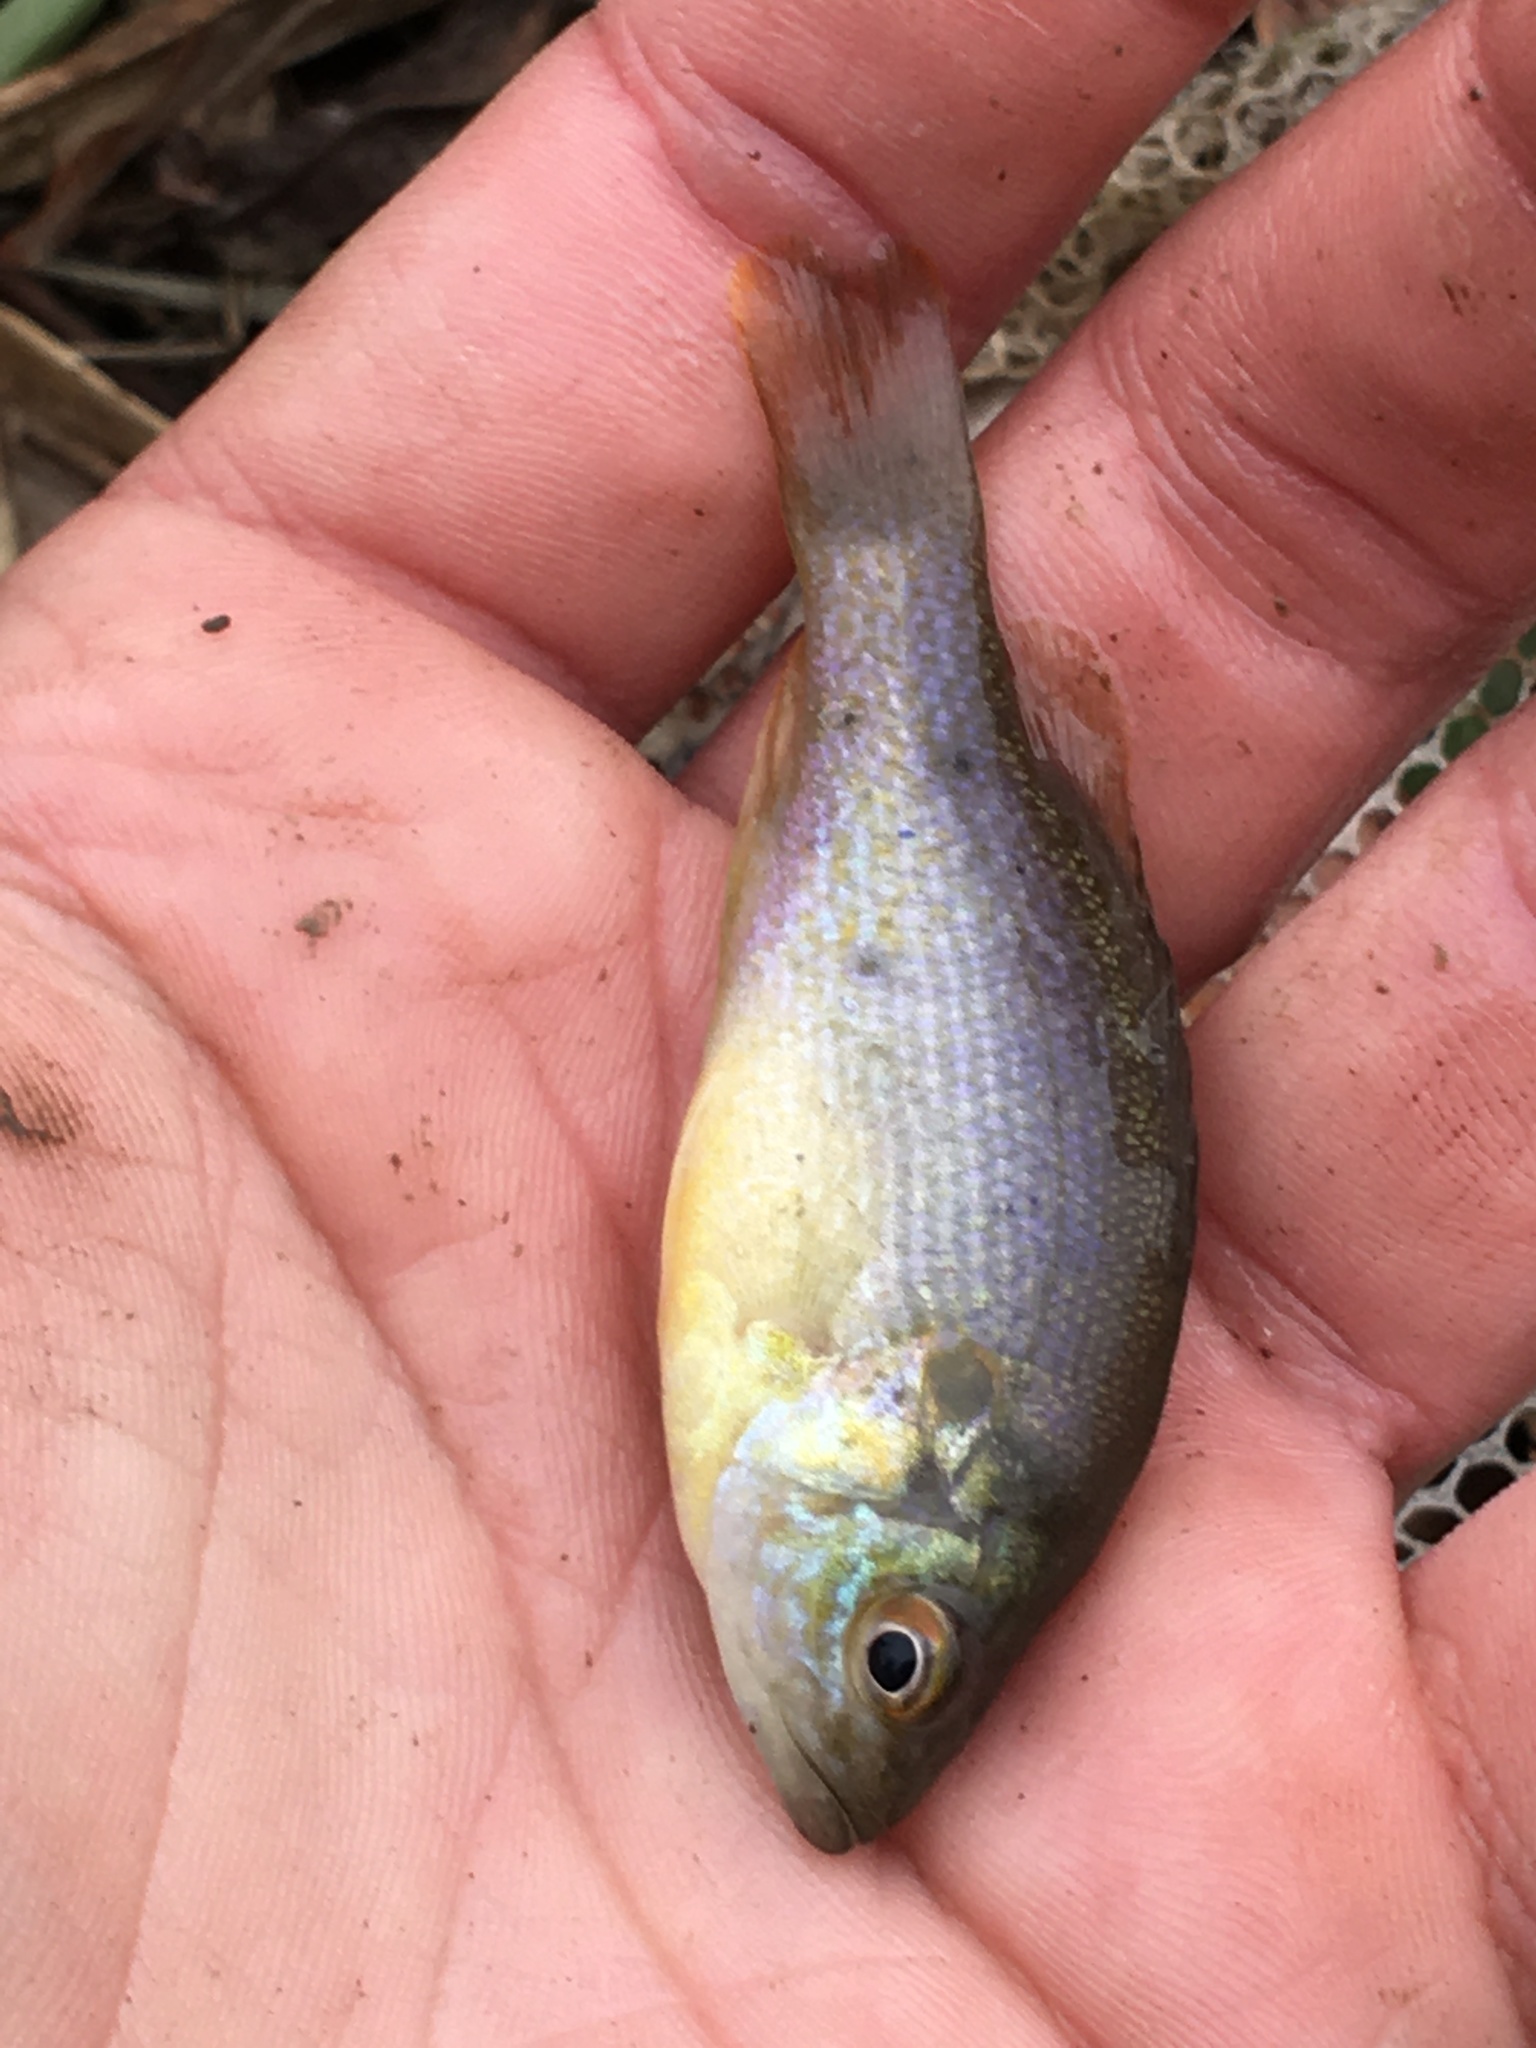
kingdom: Animalia
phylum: Chordata
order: Perciformes
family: Centrarchidae
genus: Lepomis
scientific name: Lepomis cyanellus
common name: Green sunfish
